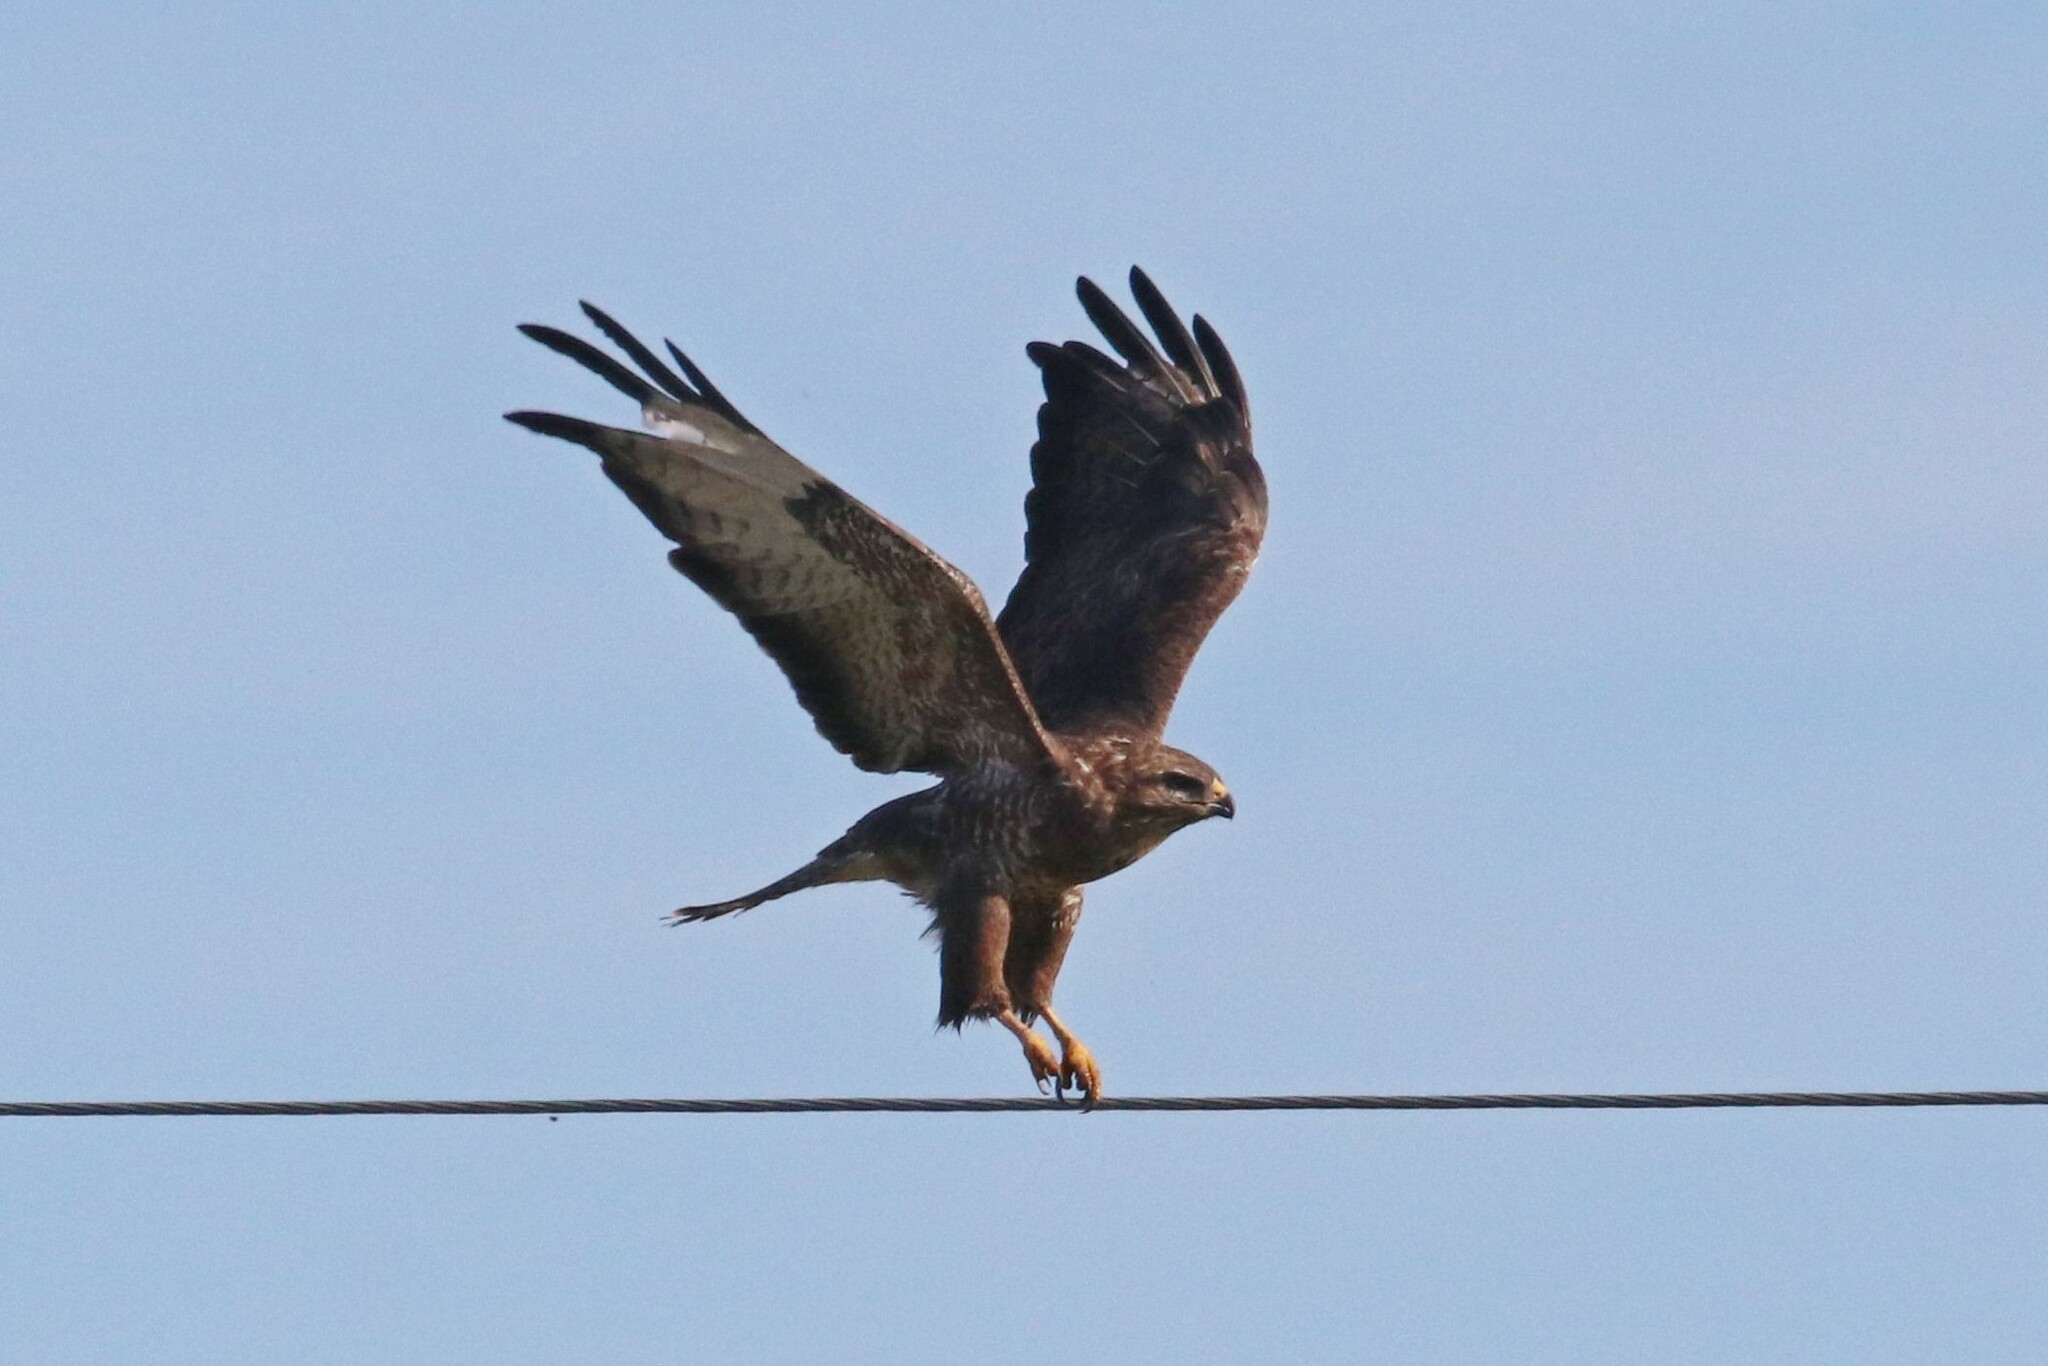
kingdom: Animalia
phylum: Chordata
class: Aves
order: Accipitriformes
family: Accipitridae
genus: Buteo
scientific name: Buteo buteo
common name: Common buzzard
